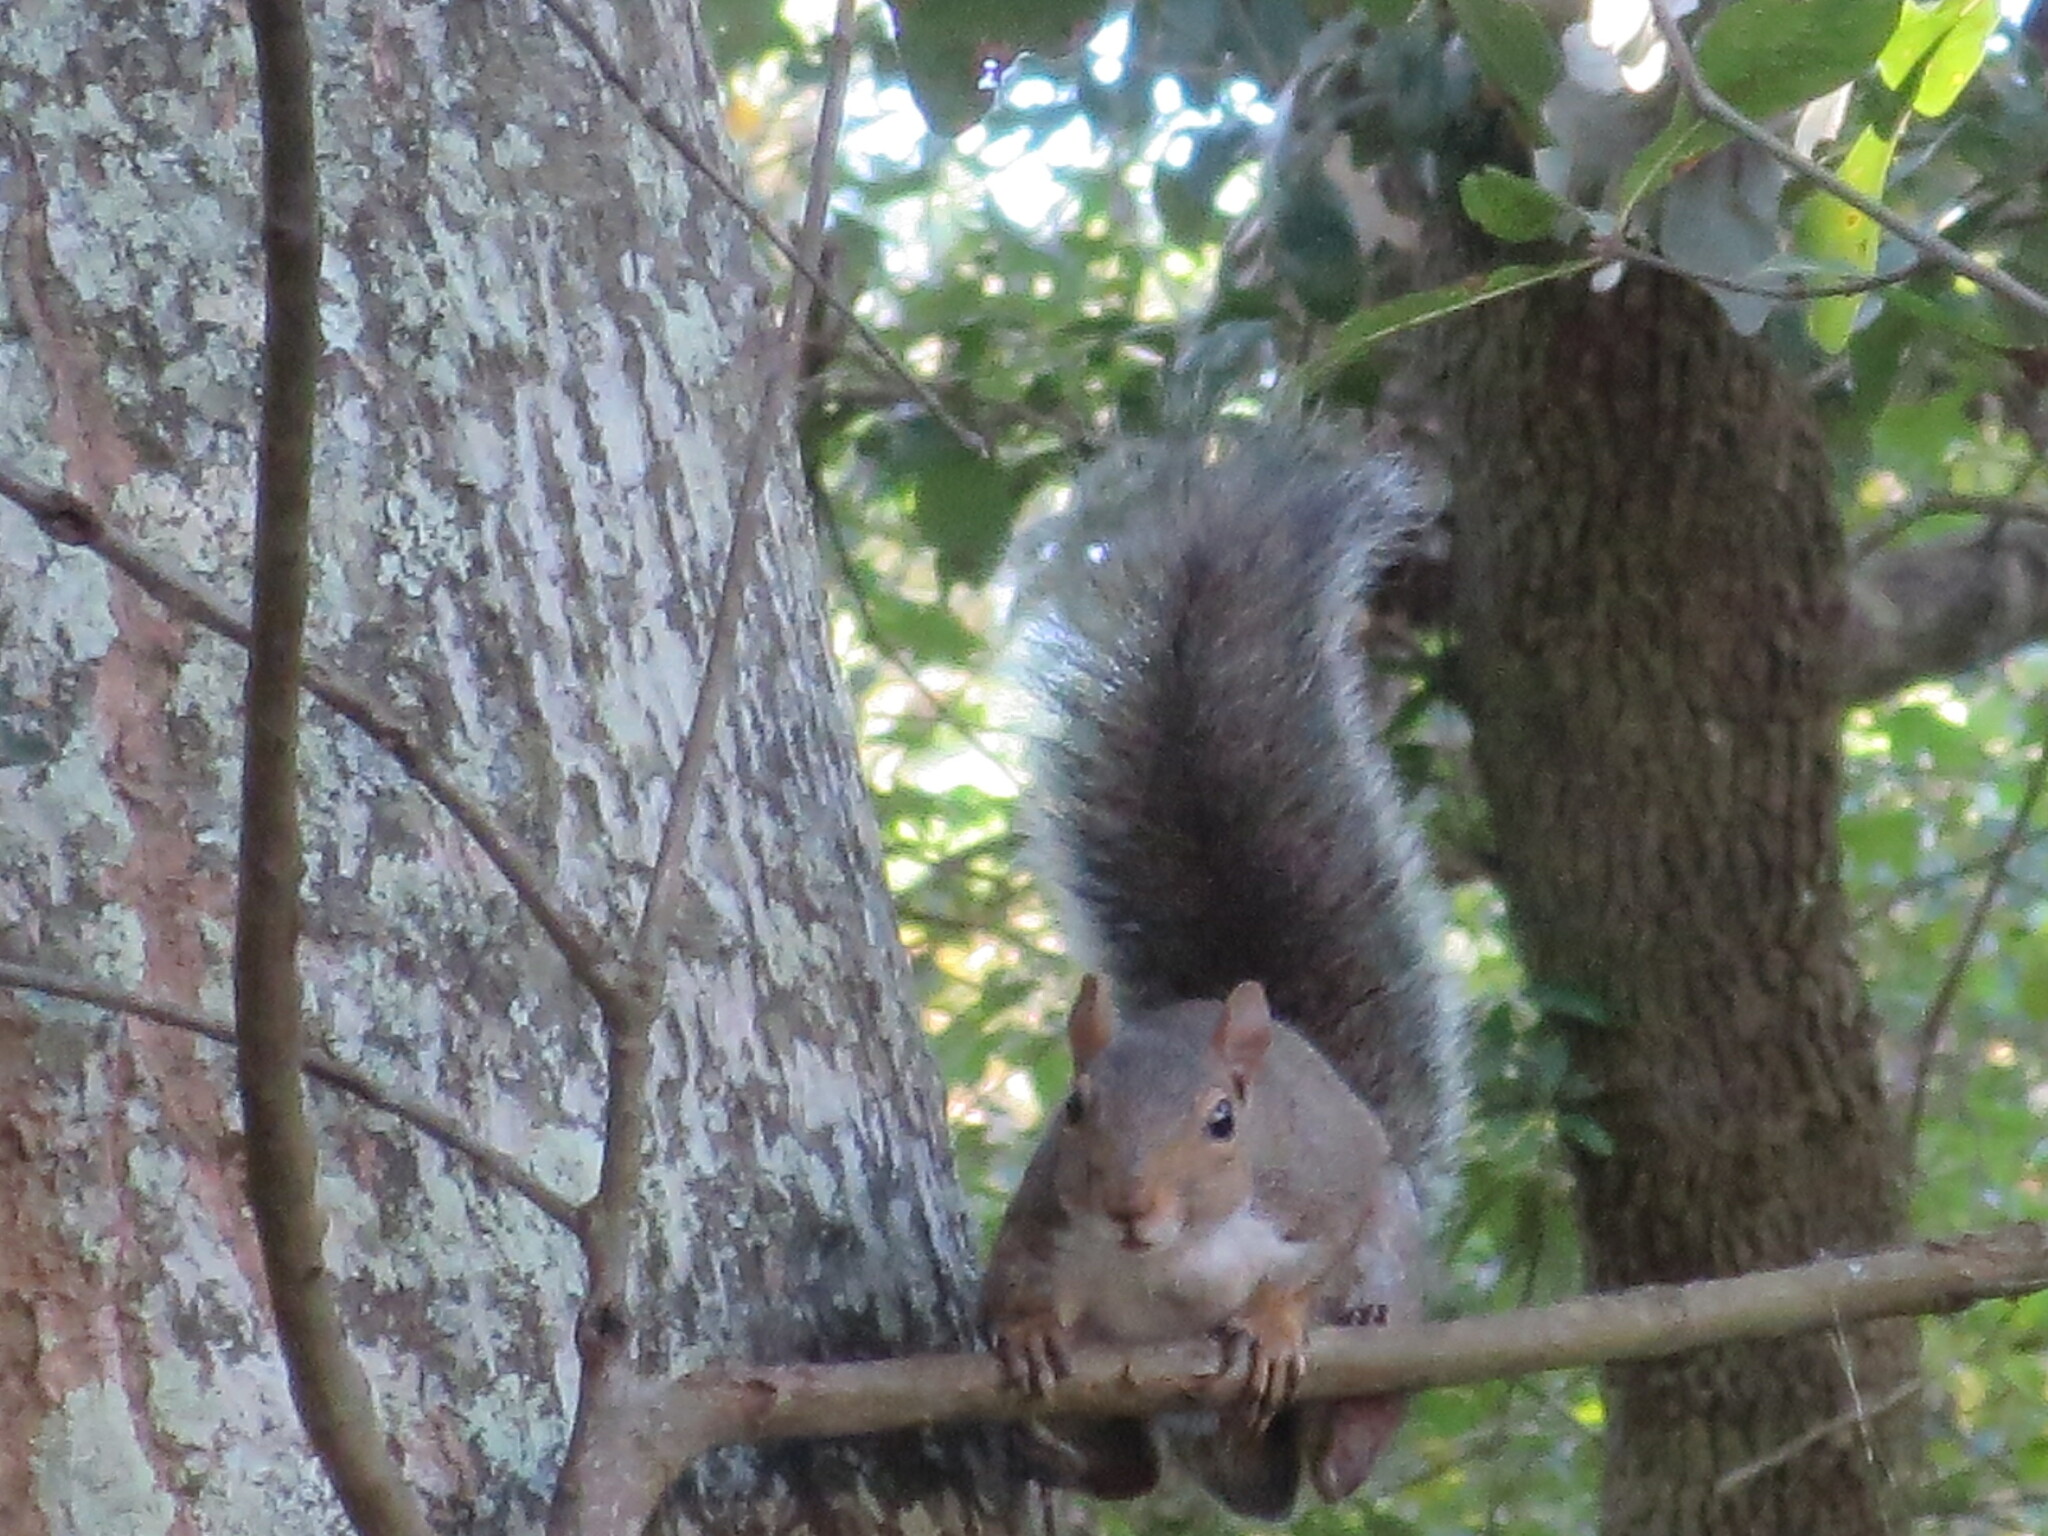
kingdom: Animalia
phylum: Chordata
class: Mammalia
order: Rodentia
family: Sciuridae
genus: Sciurus
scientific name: Sciurus carolinensis
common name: Eastern gray squirrel
